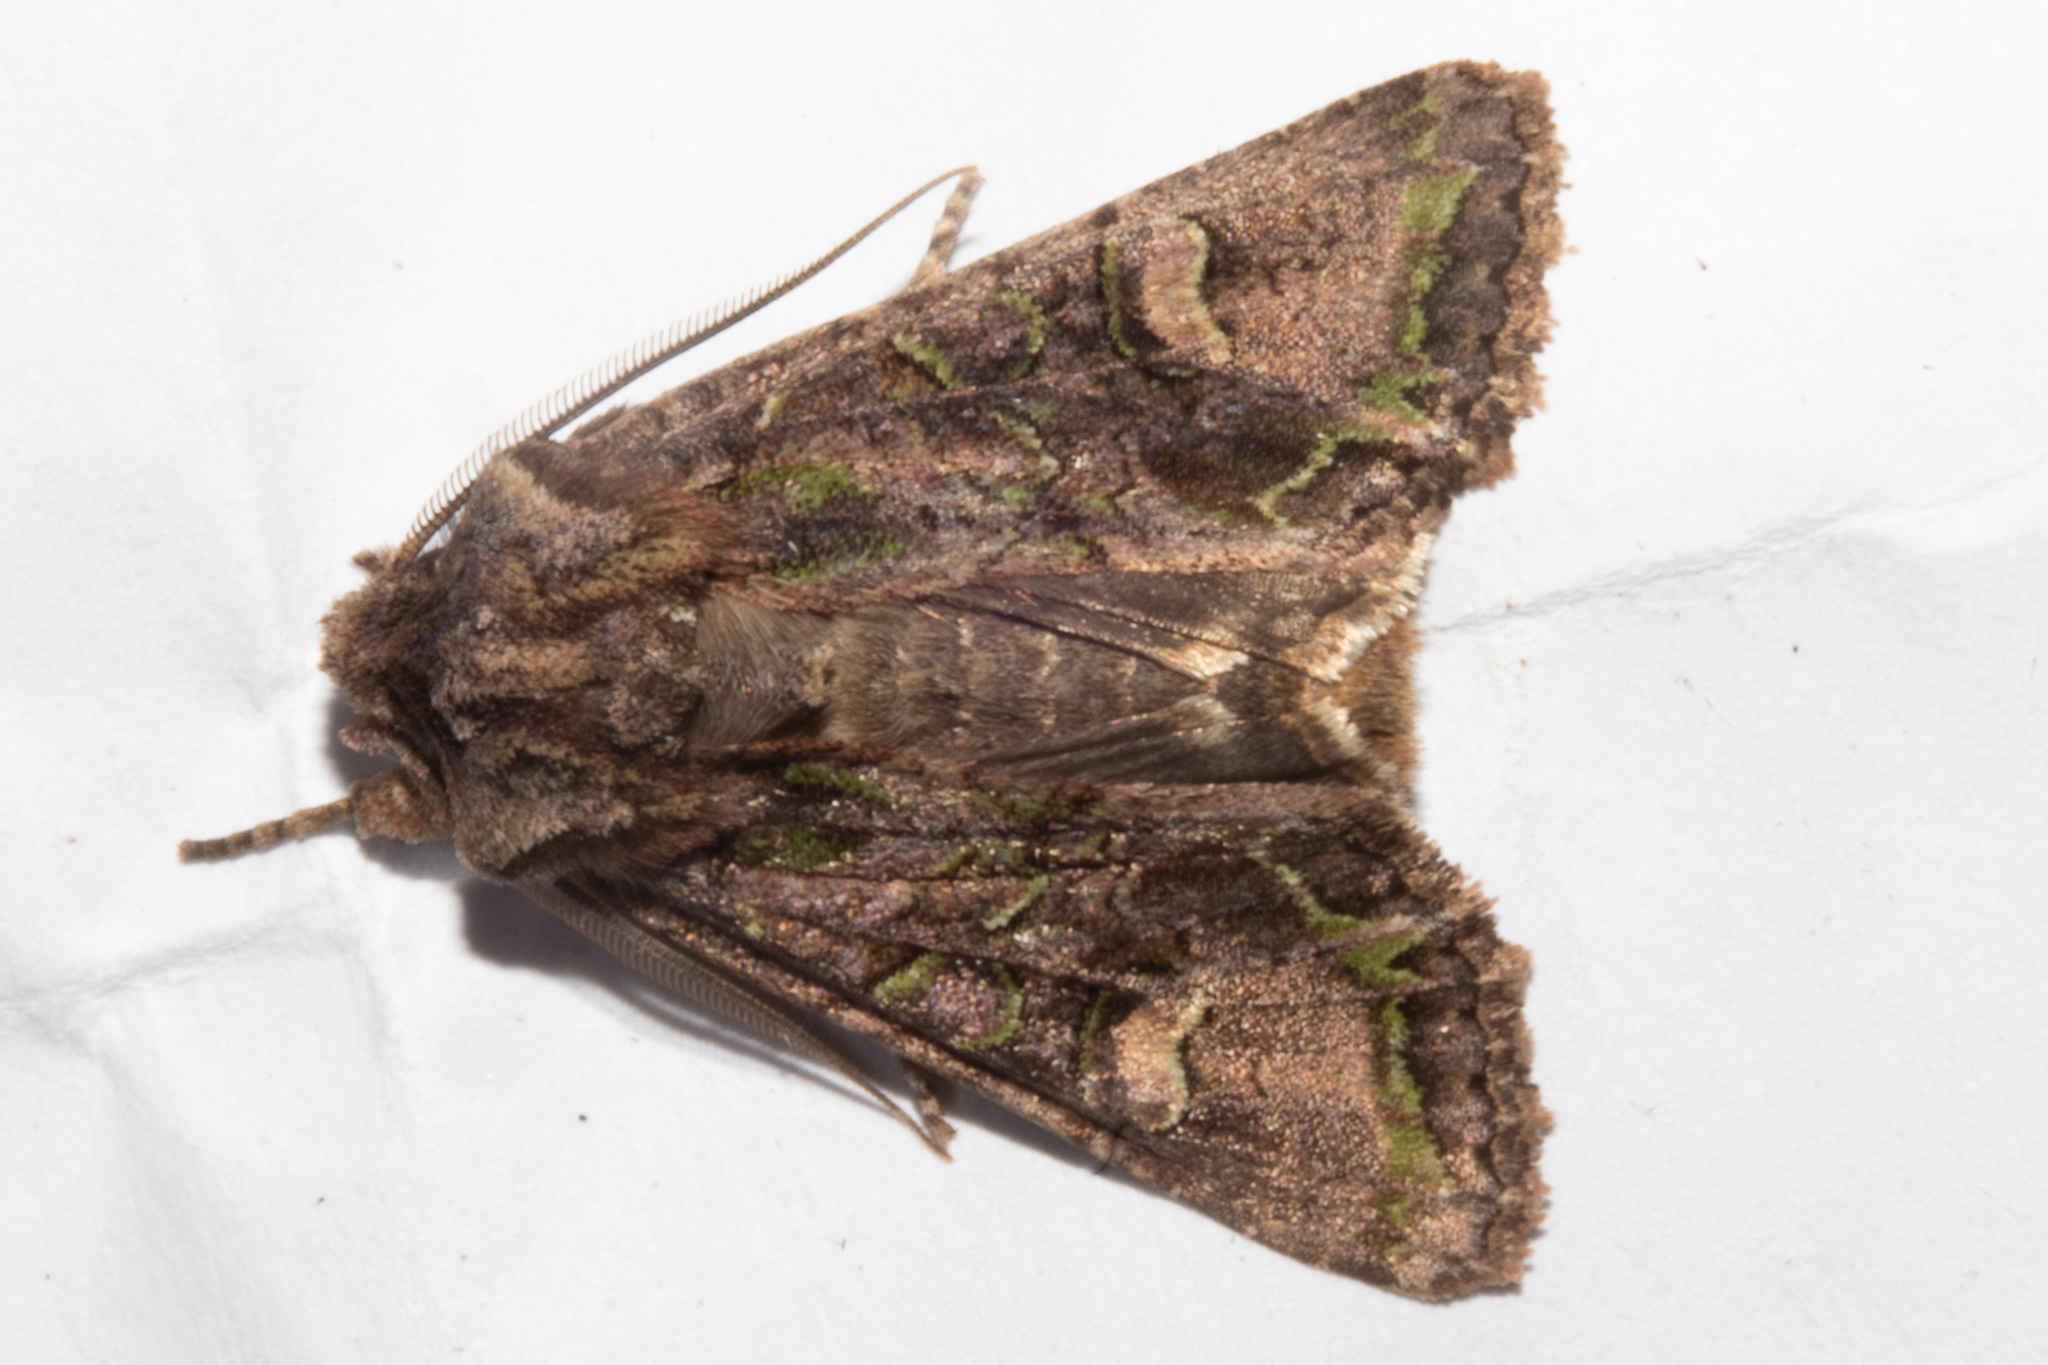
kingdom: Animalia
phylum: Arthropoda
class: Insecta
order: Lepidoptera
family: Noctuidae
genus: Ichneutica
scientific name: Ichneutica insignis
